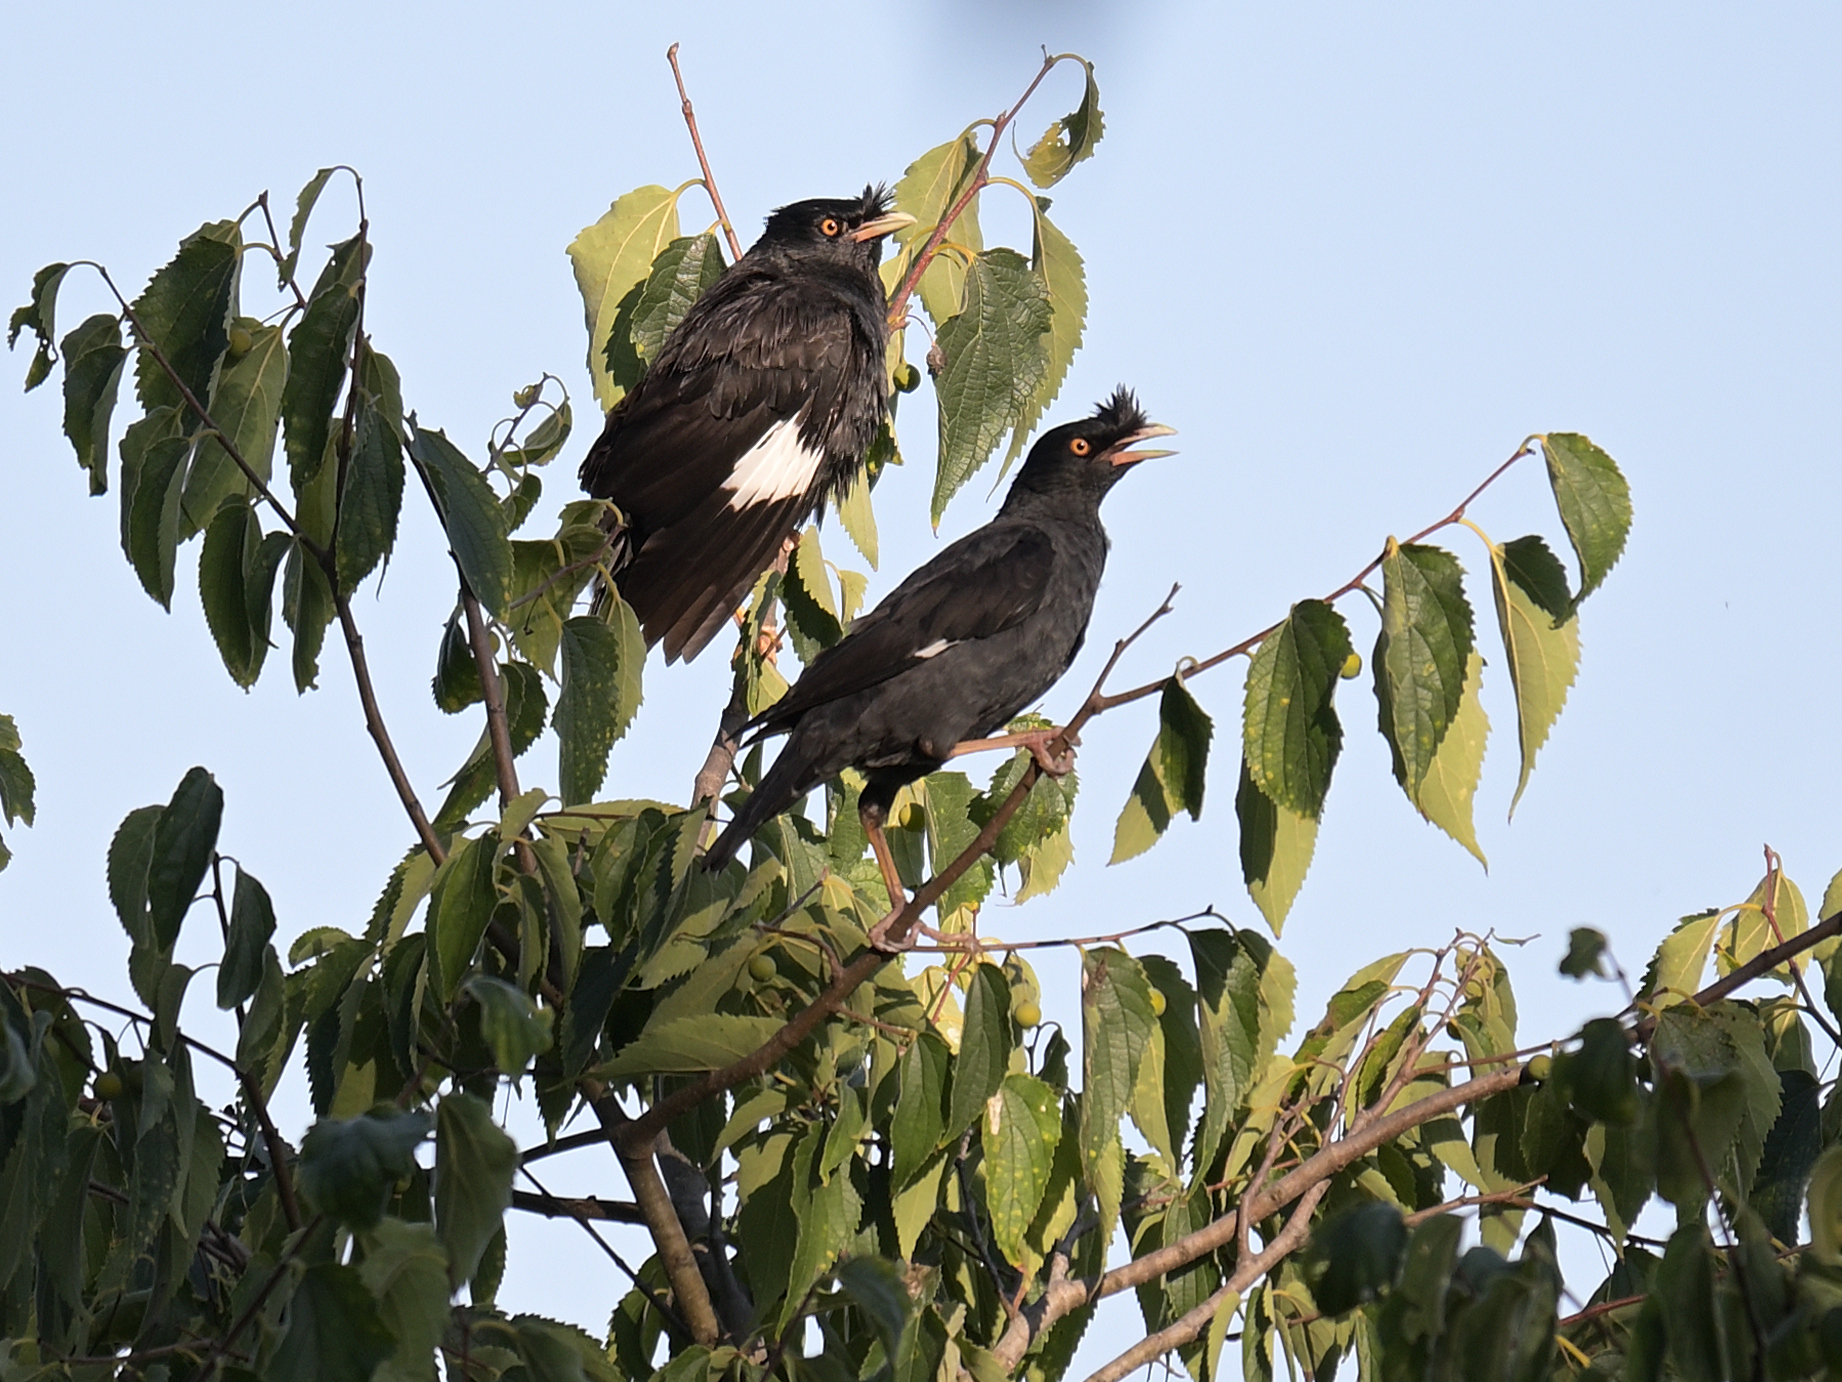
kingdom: Animalia
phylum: Chordata
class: Aves
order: Passeriformes
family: Sturnidae
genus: Acridotheres
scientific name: Acridotheres cristatellus
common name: Crested myna
